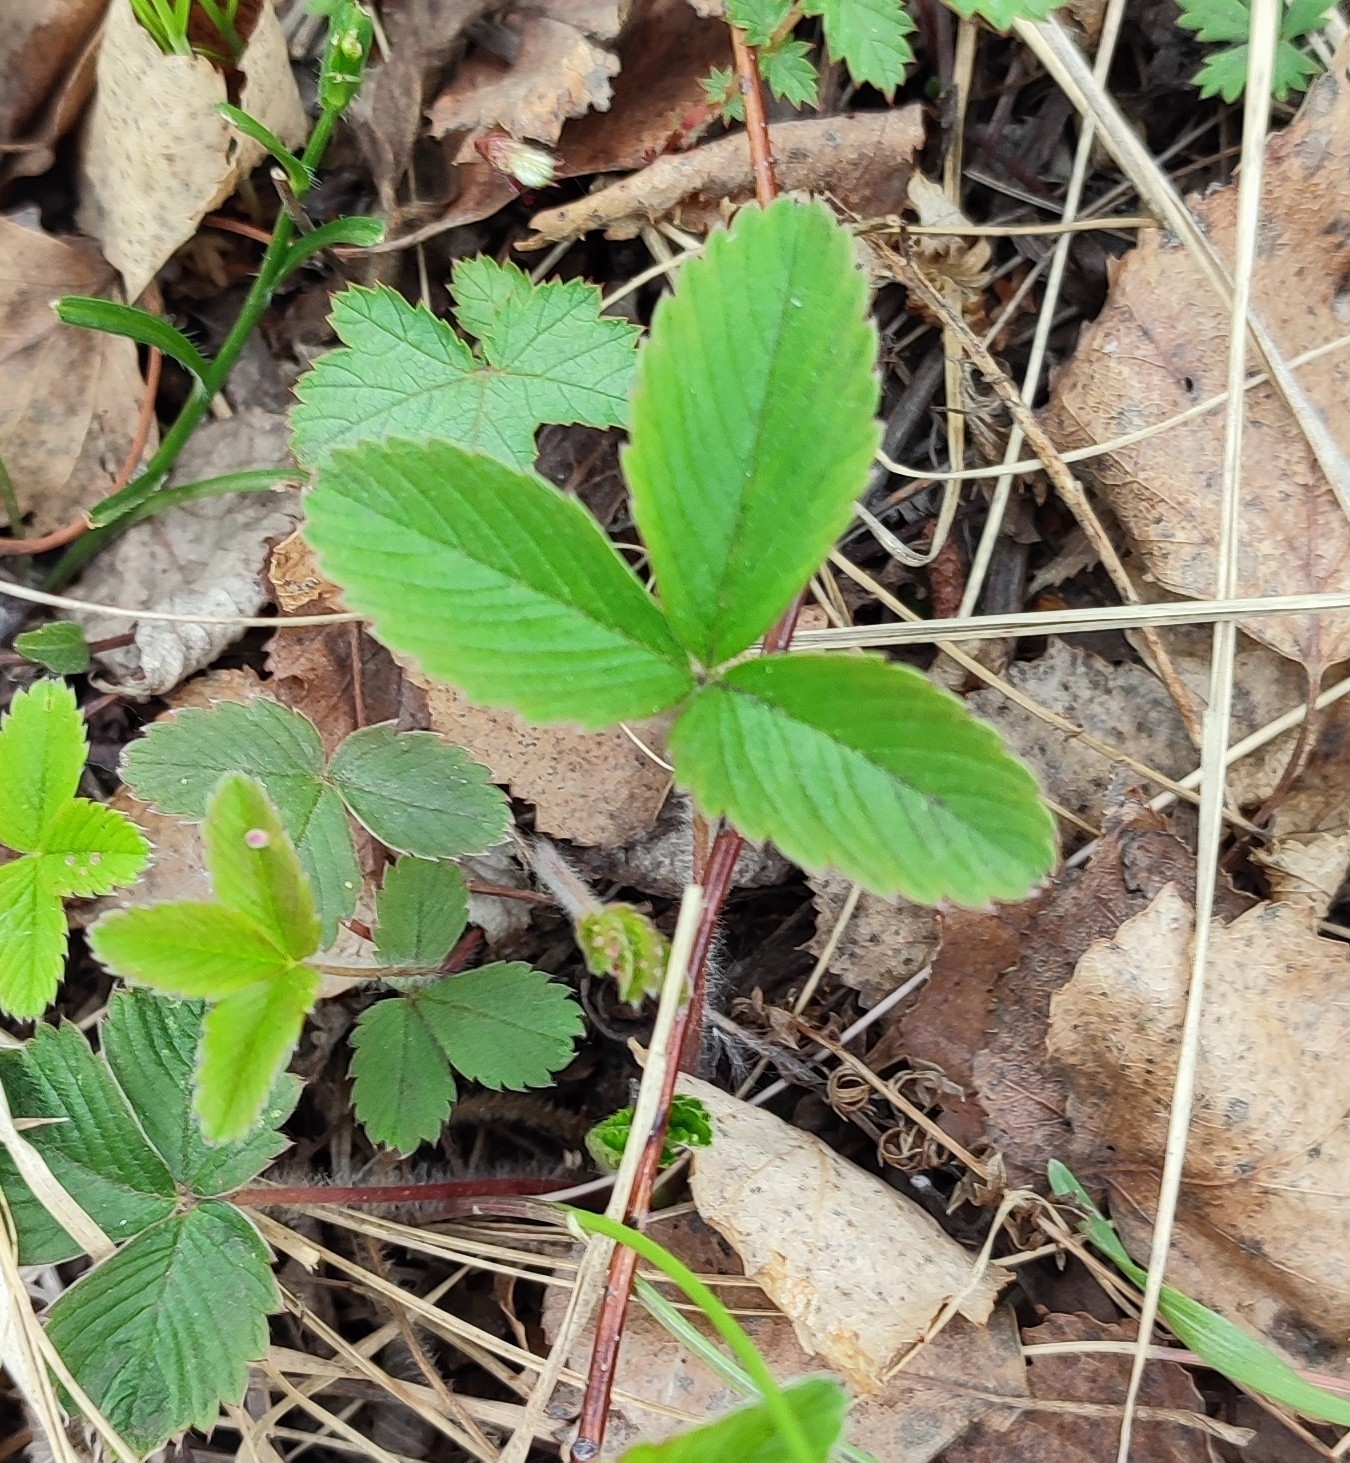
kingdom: Plantae
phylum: Tracheophyta
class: Magnoliopsida
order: Rosales
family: Rosaceae
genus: Fragaria
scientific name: Fragaria viridis
